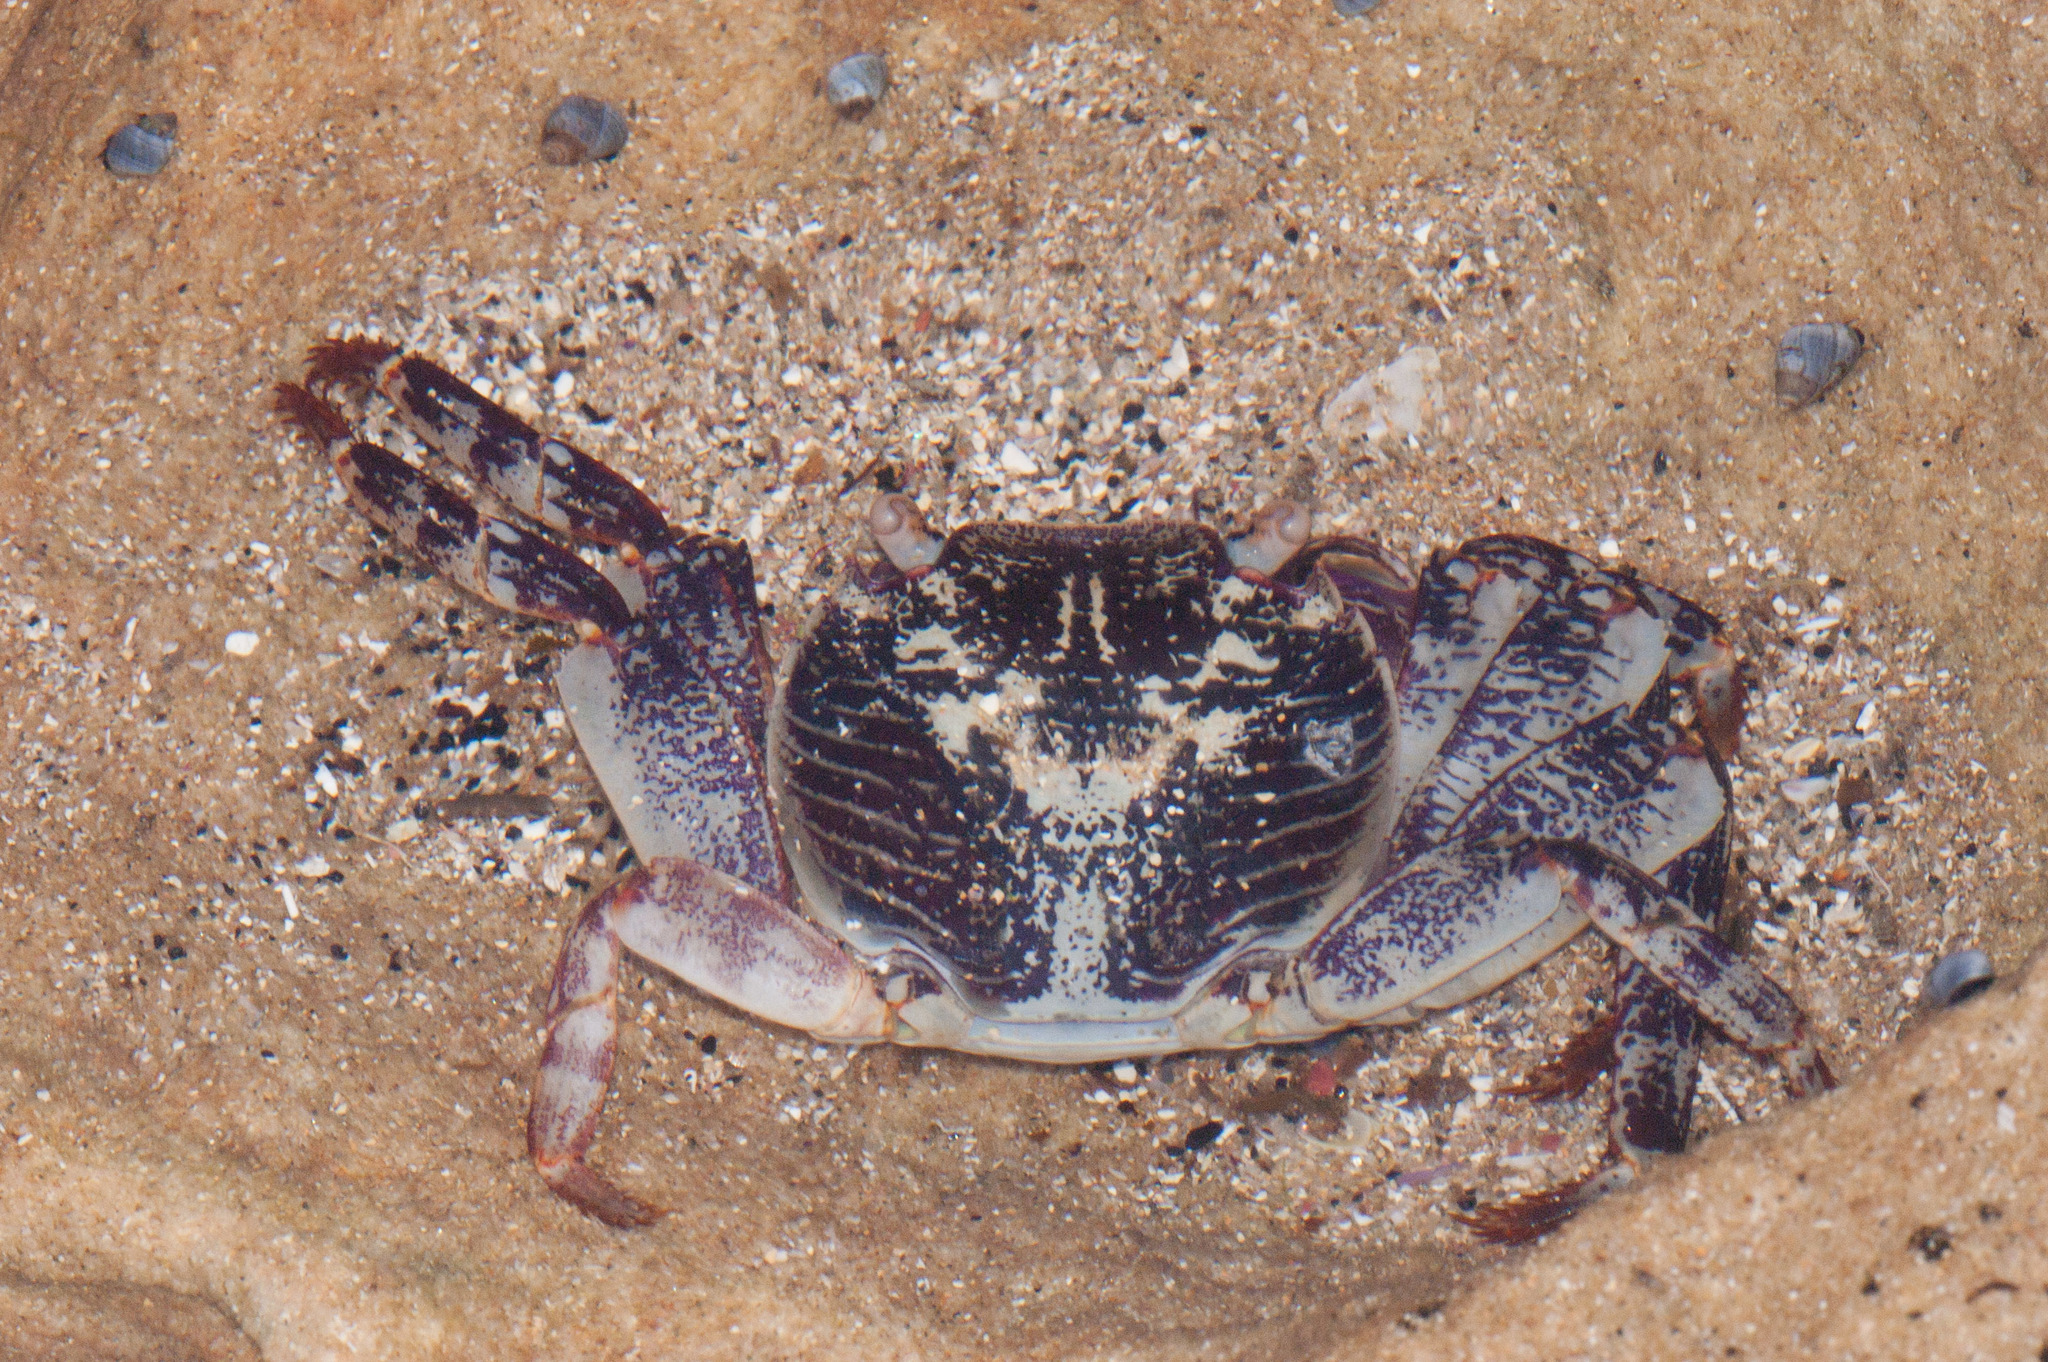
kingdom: Animalia
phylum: Arthropoda
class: Malacostraca
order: Decapoda
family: Grapsidae
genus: Leptograpsus
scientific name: Leptograpsus variegatus
